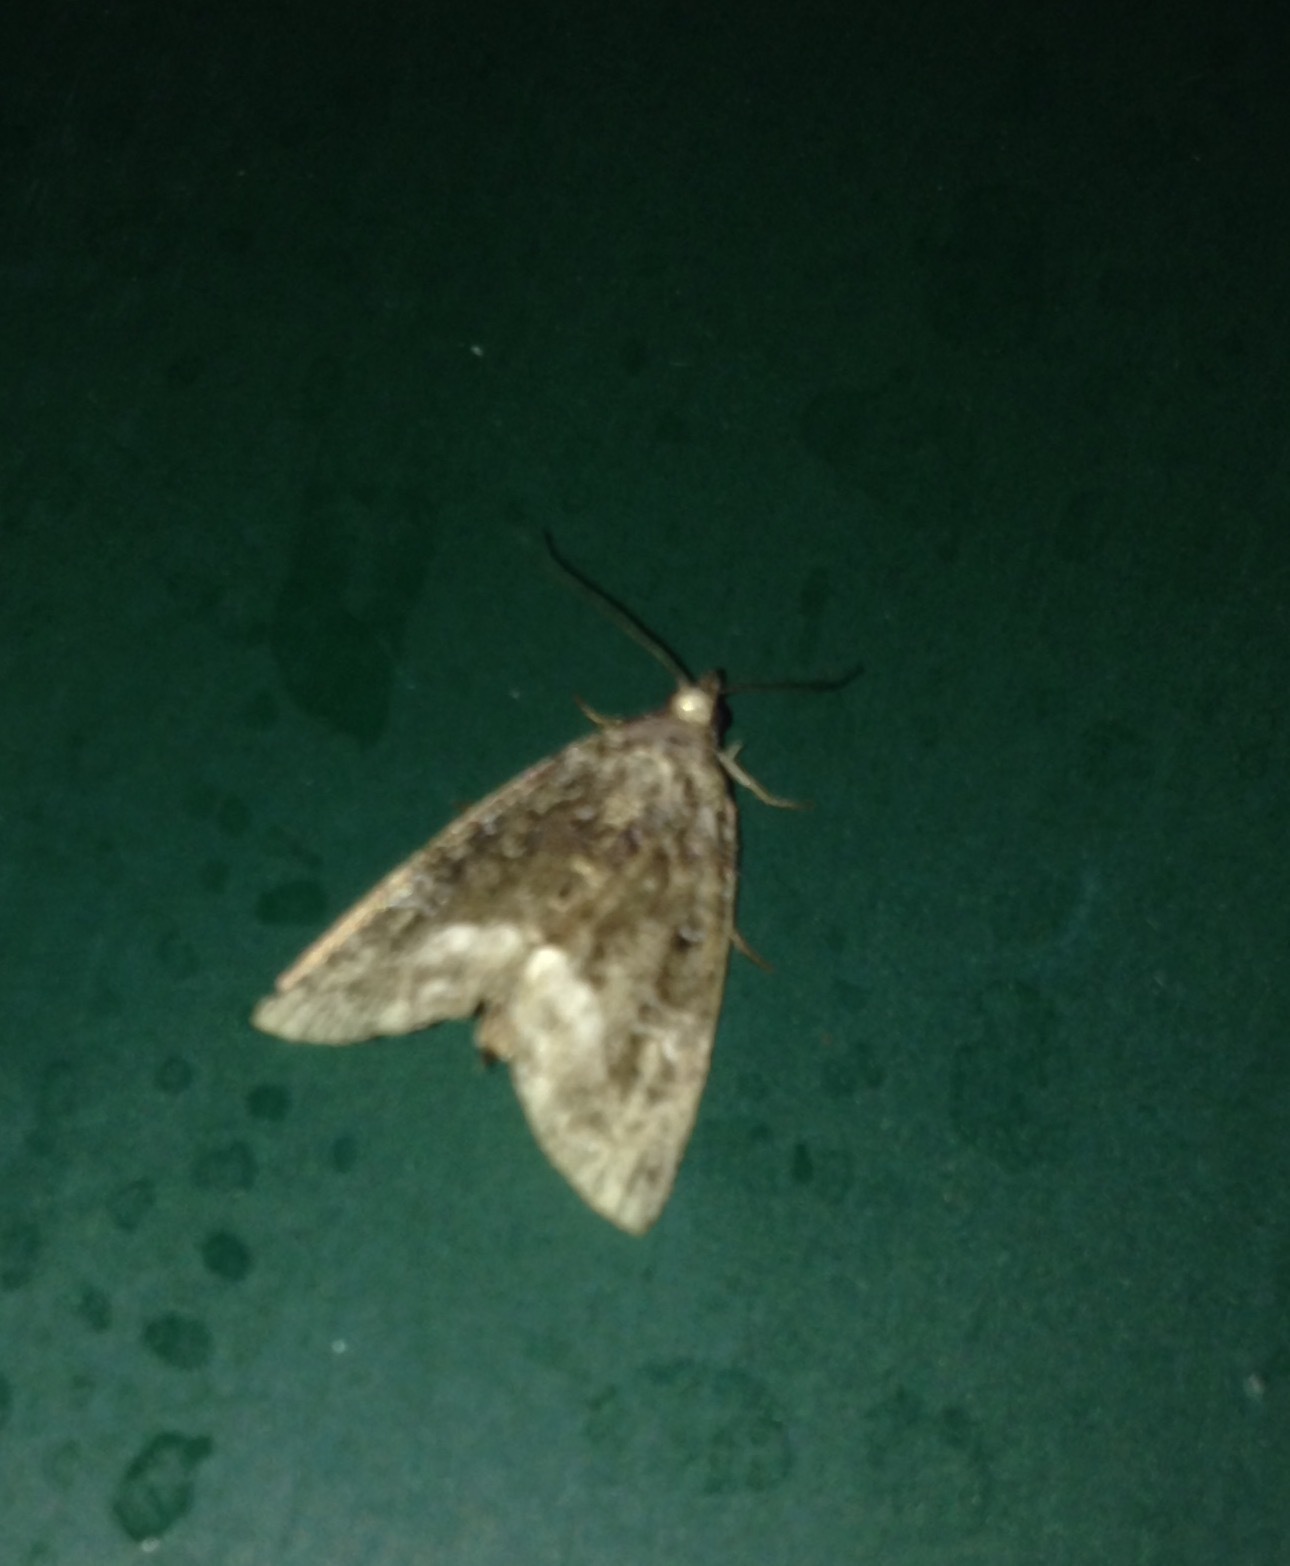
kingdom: Animalia
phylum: Arthropoda
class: Insecta
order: Lepidoptera
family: Noctuidae
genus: Deltote
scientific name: Deltote pygarga
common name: Marbled white spot
